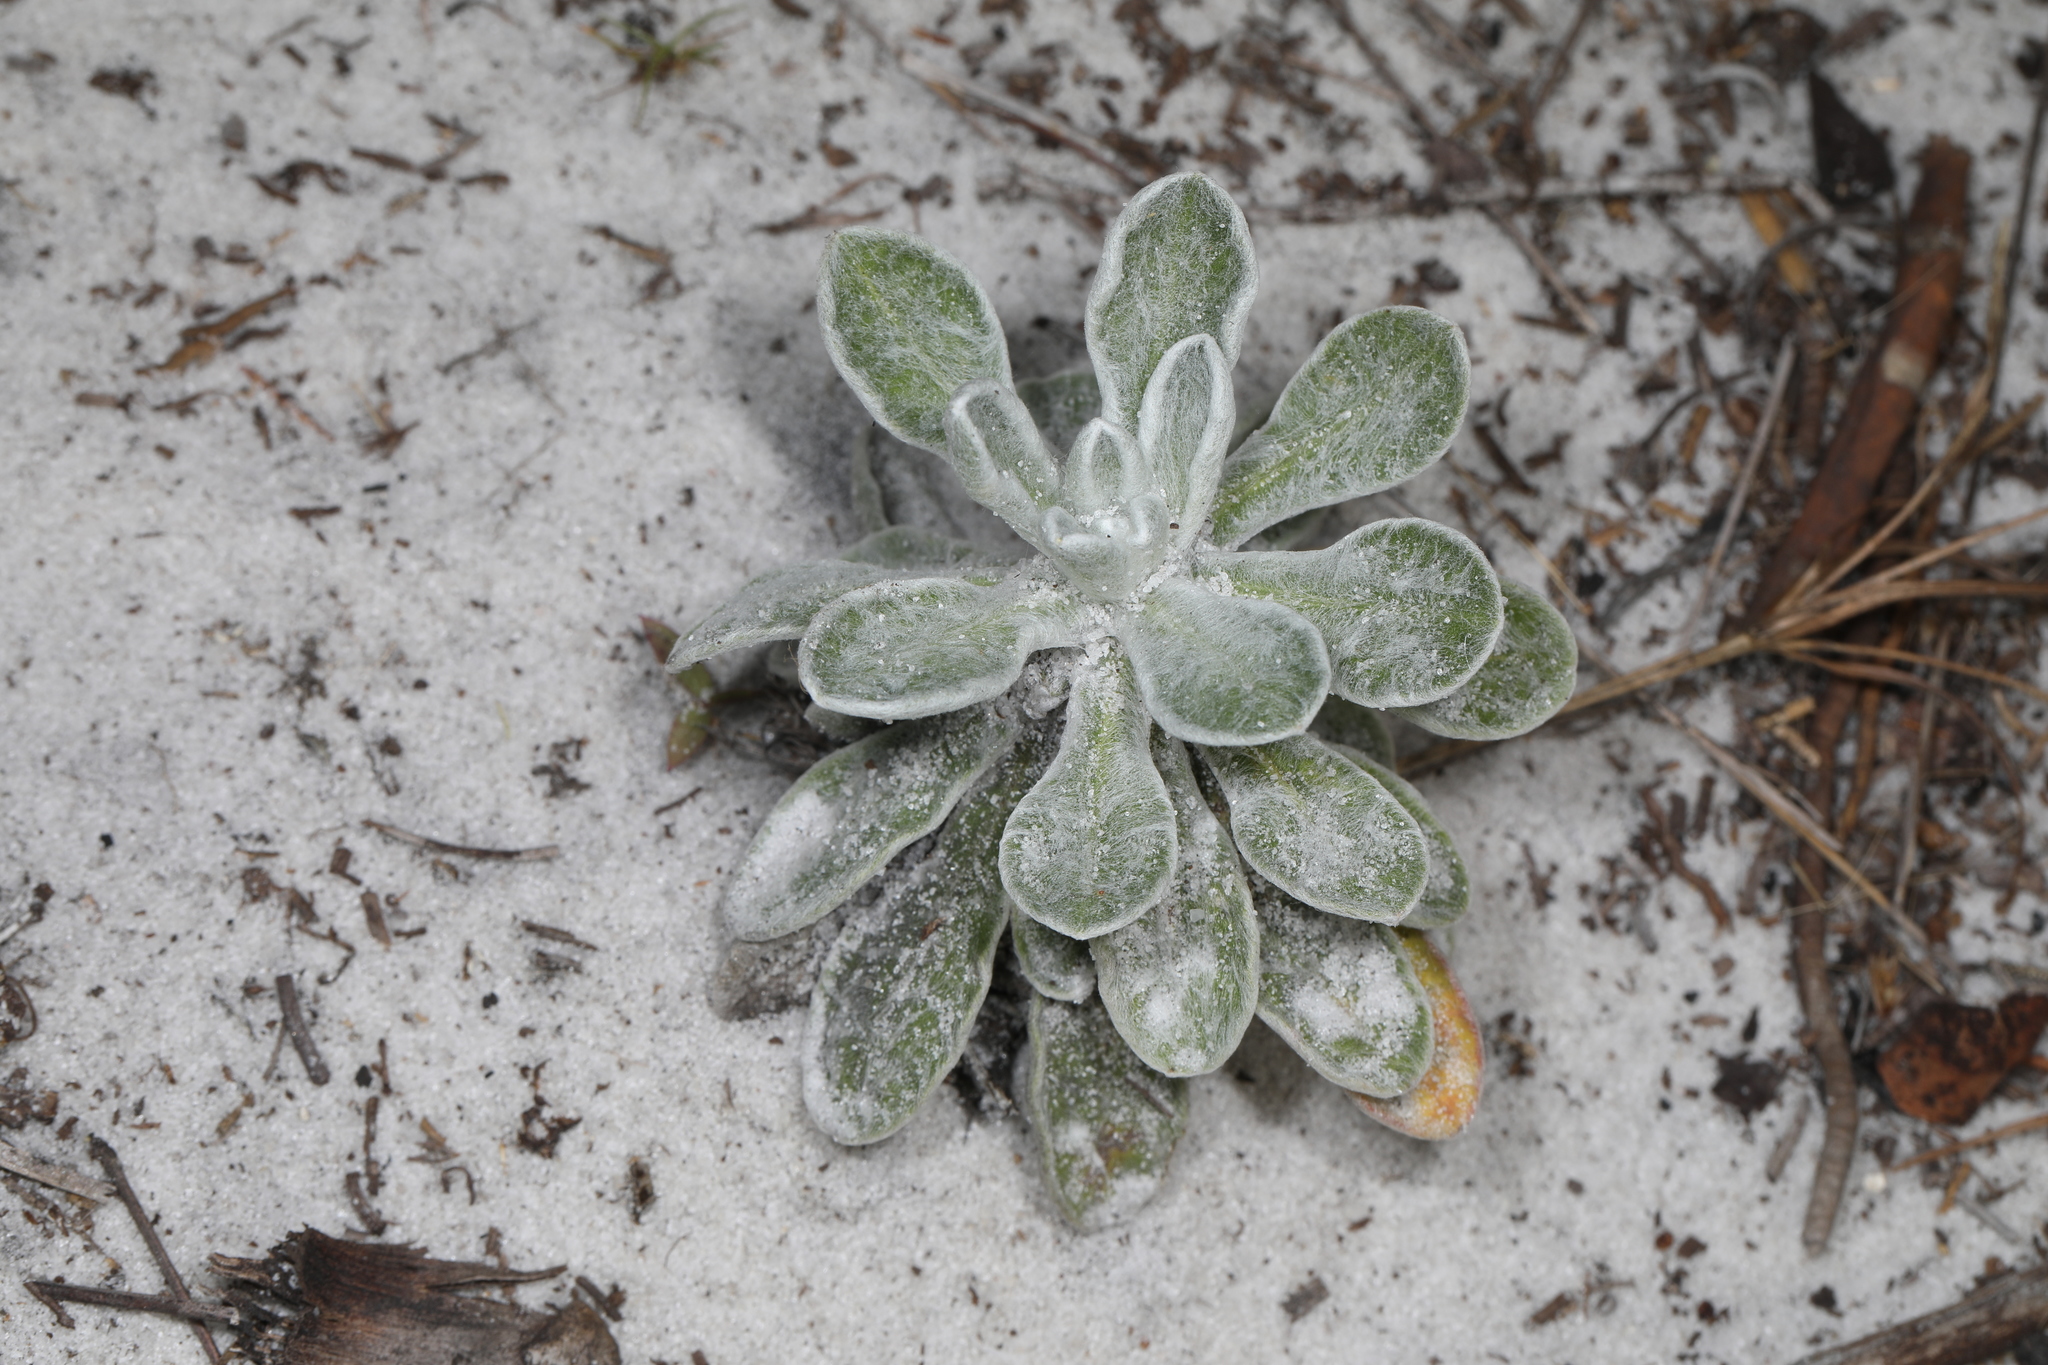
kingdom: Plantae
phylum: Tracheophyta
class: Magnoliopsida
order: Asterales
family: Asteraceae
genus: Chrysopsis
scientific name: Chrysopsis floridana
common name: Florida golden-aster
